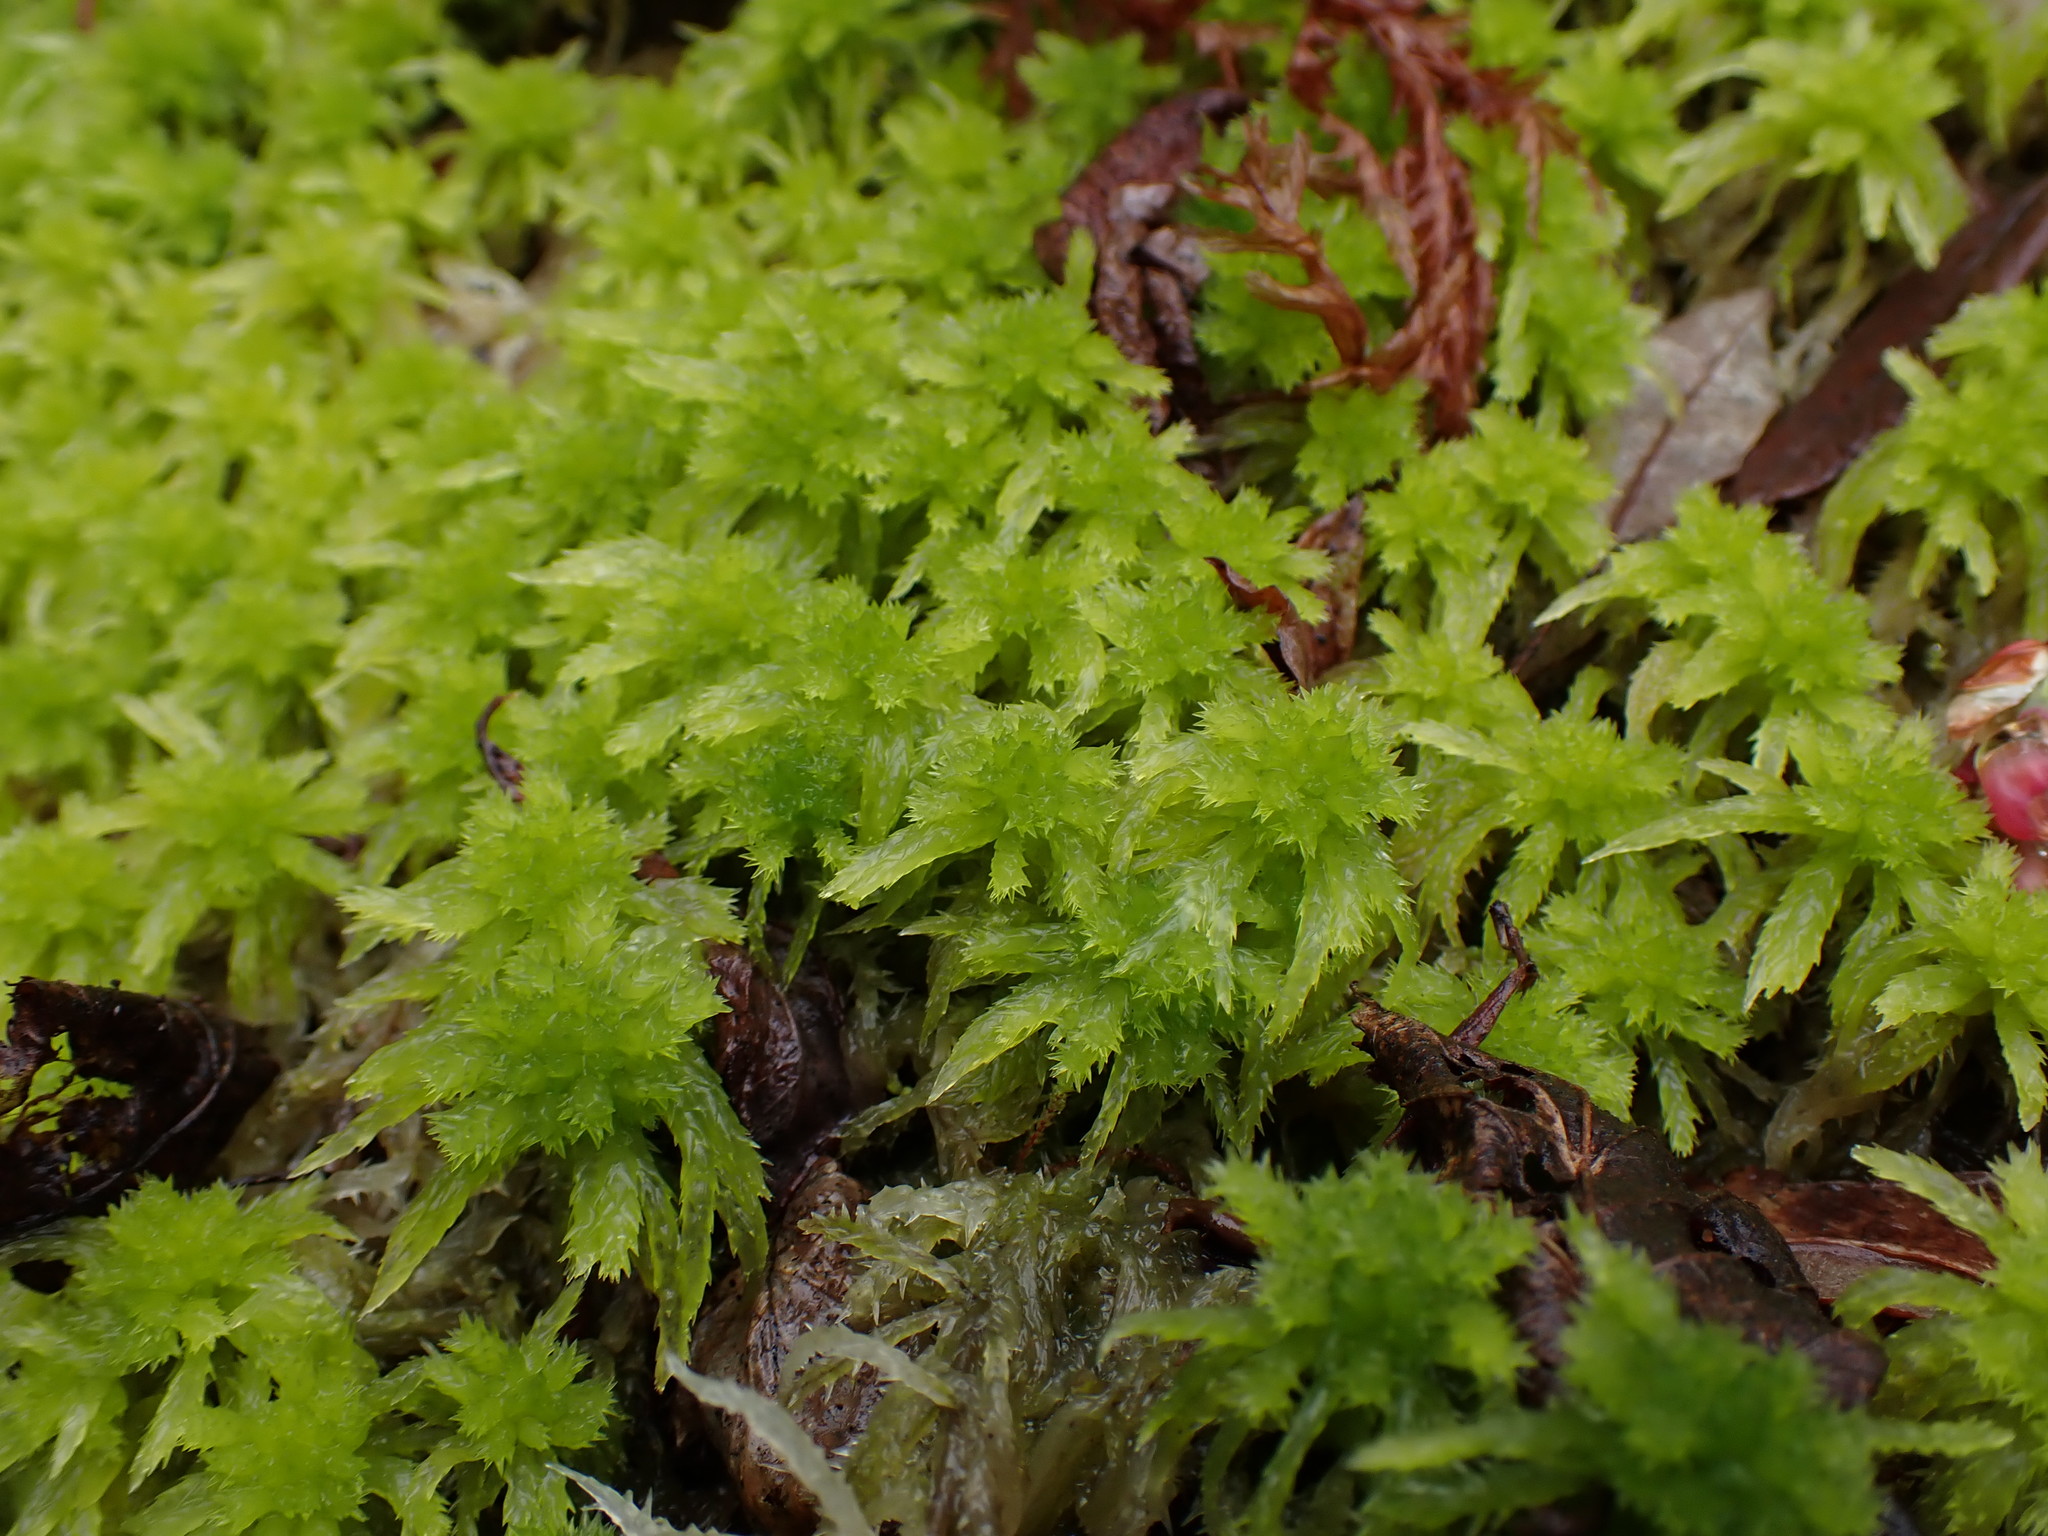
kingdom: Plantae
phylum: Bryophyta
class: Sphagnopsida
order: Sphagnales
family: Sphagnaceae
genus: Sphagnum
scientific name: Sphagnum squarrosum
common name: Shaggy peat moss
